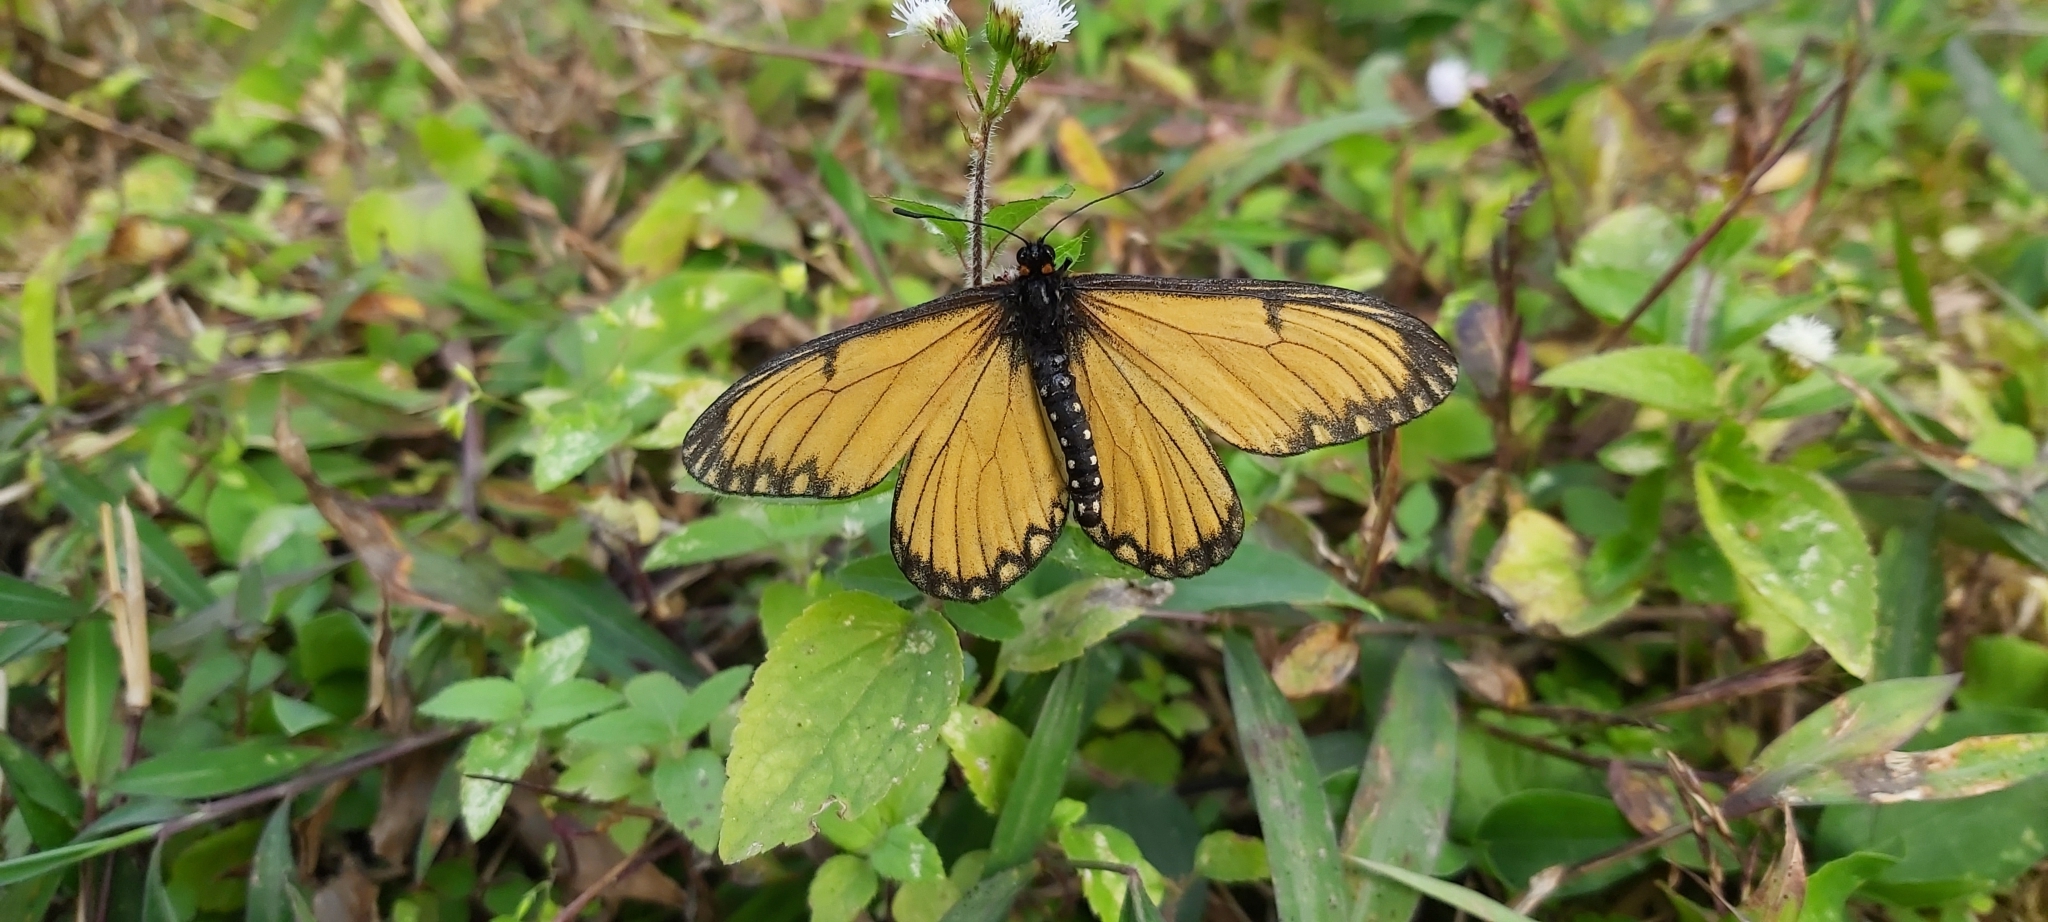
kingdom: Animalia
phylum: Arthropoda
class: Insecta
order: Lepidoptera
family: Nymphalidae
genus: Acraea
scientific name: Acraea Telchinia issoria
